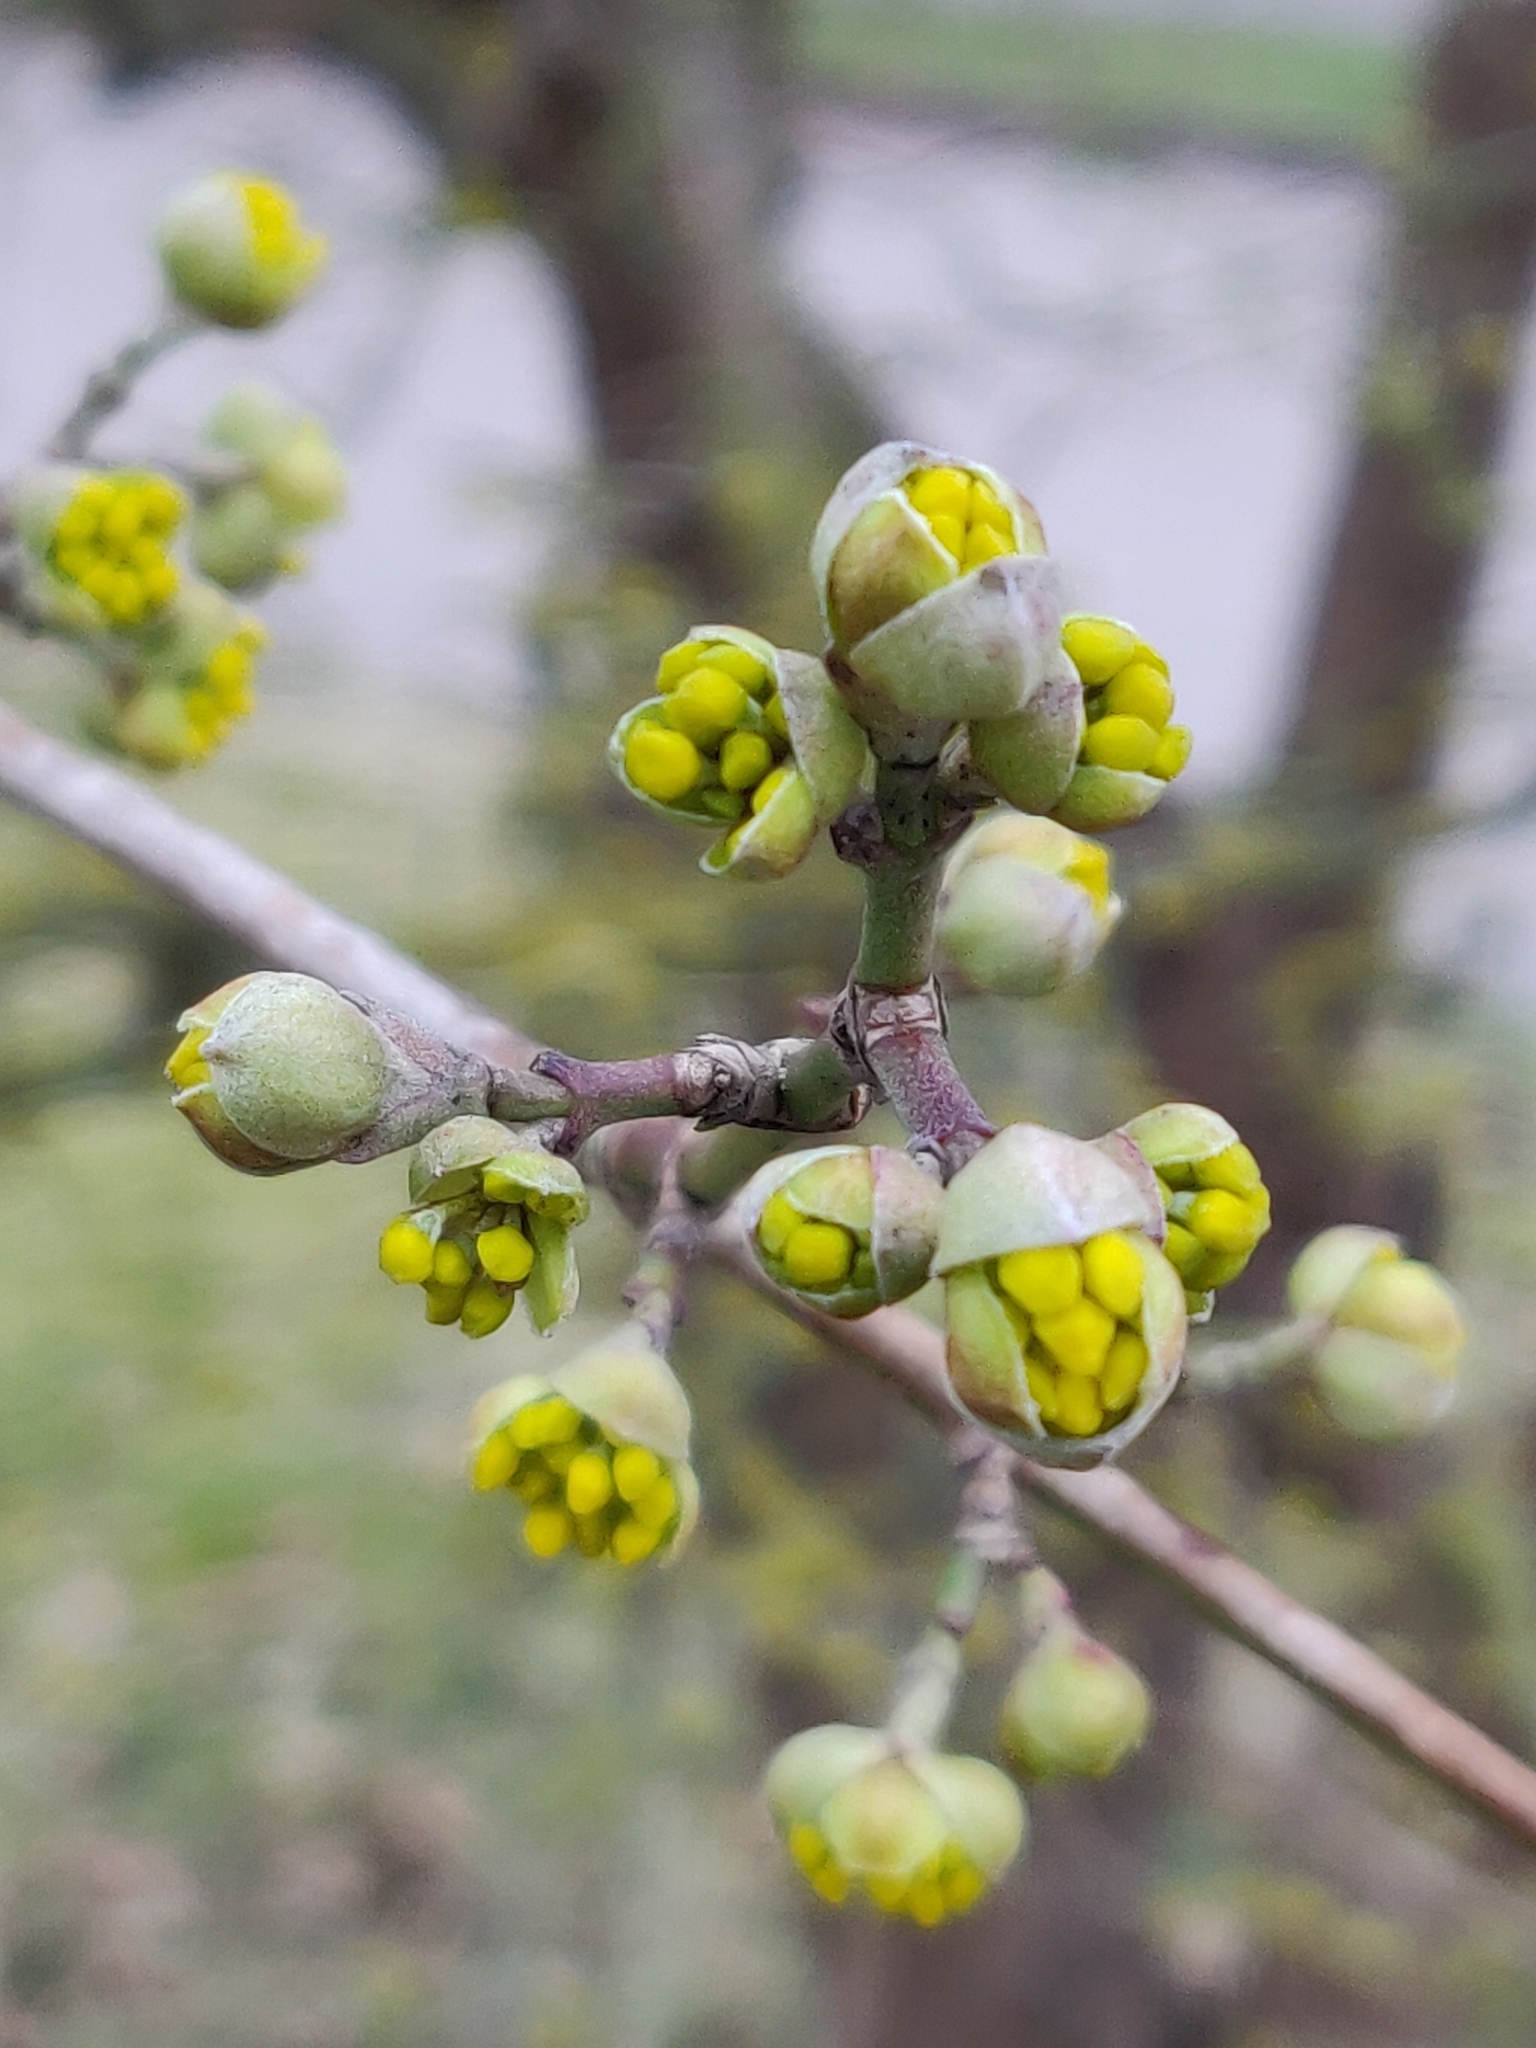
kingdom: Plantae
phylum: Tracheophyta
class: Magnoliopsida
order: Cornales
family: Cornaceae
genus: Cornus
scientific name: Cornus mas
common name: Cornelian-cherry
